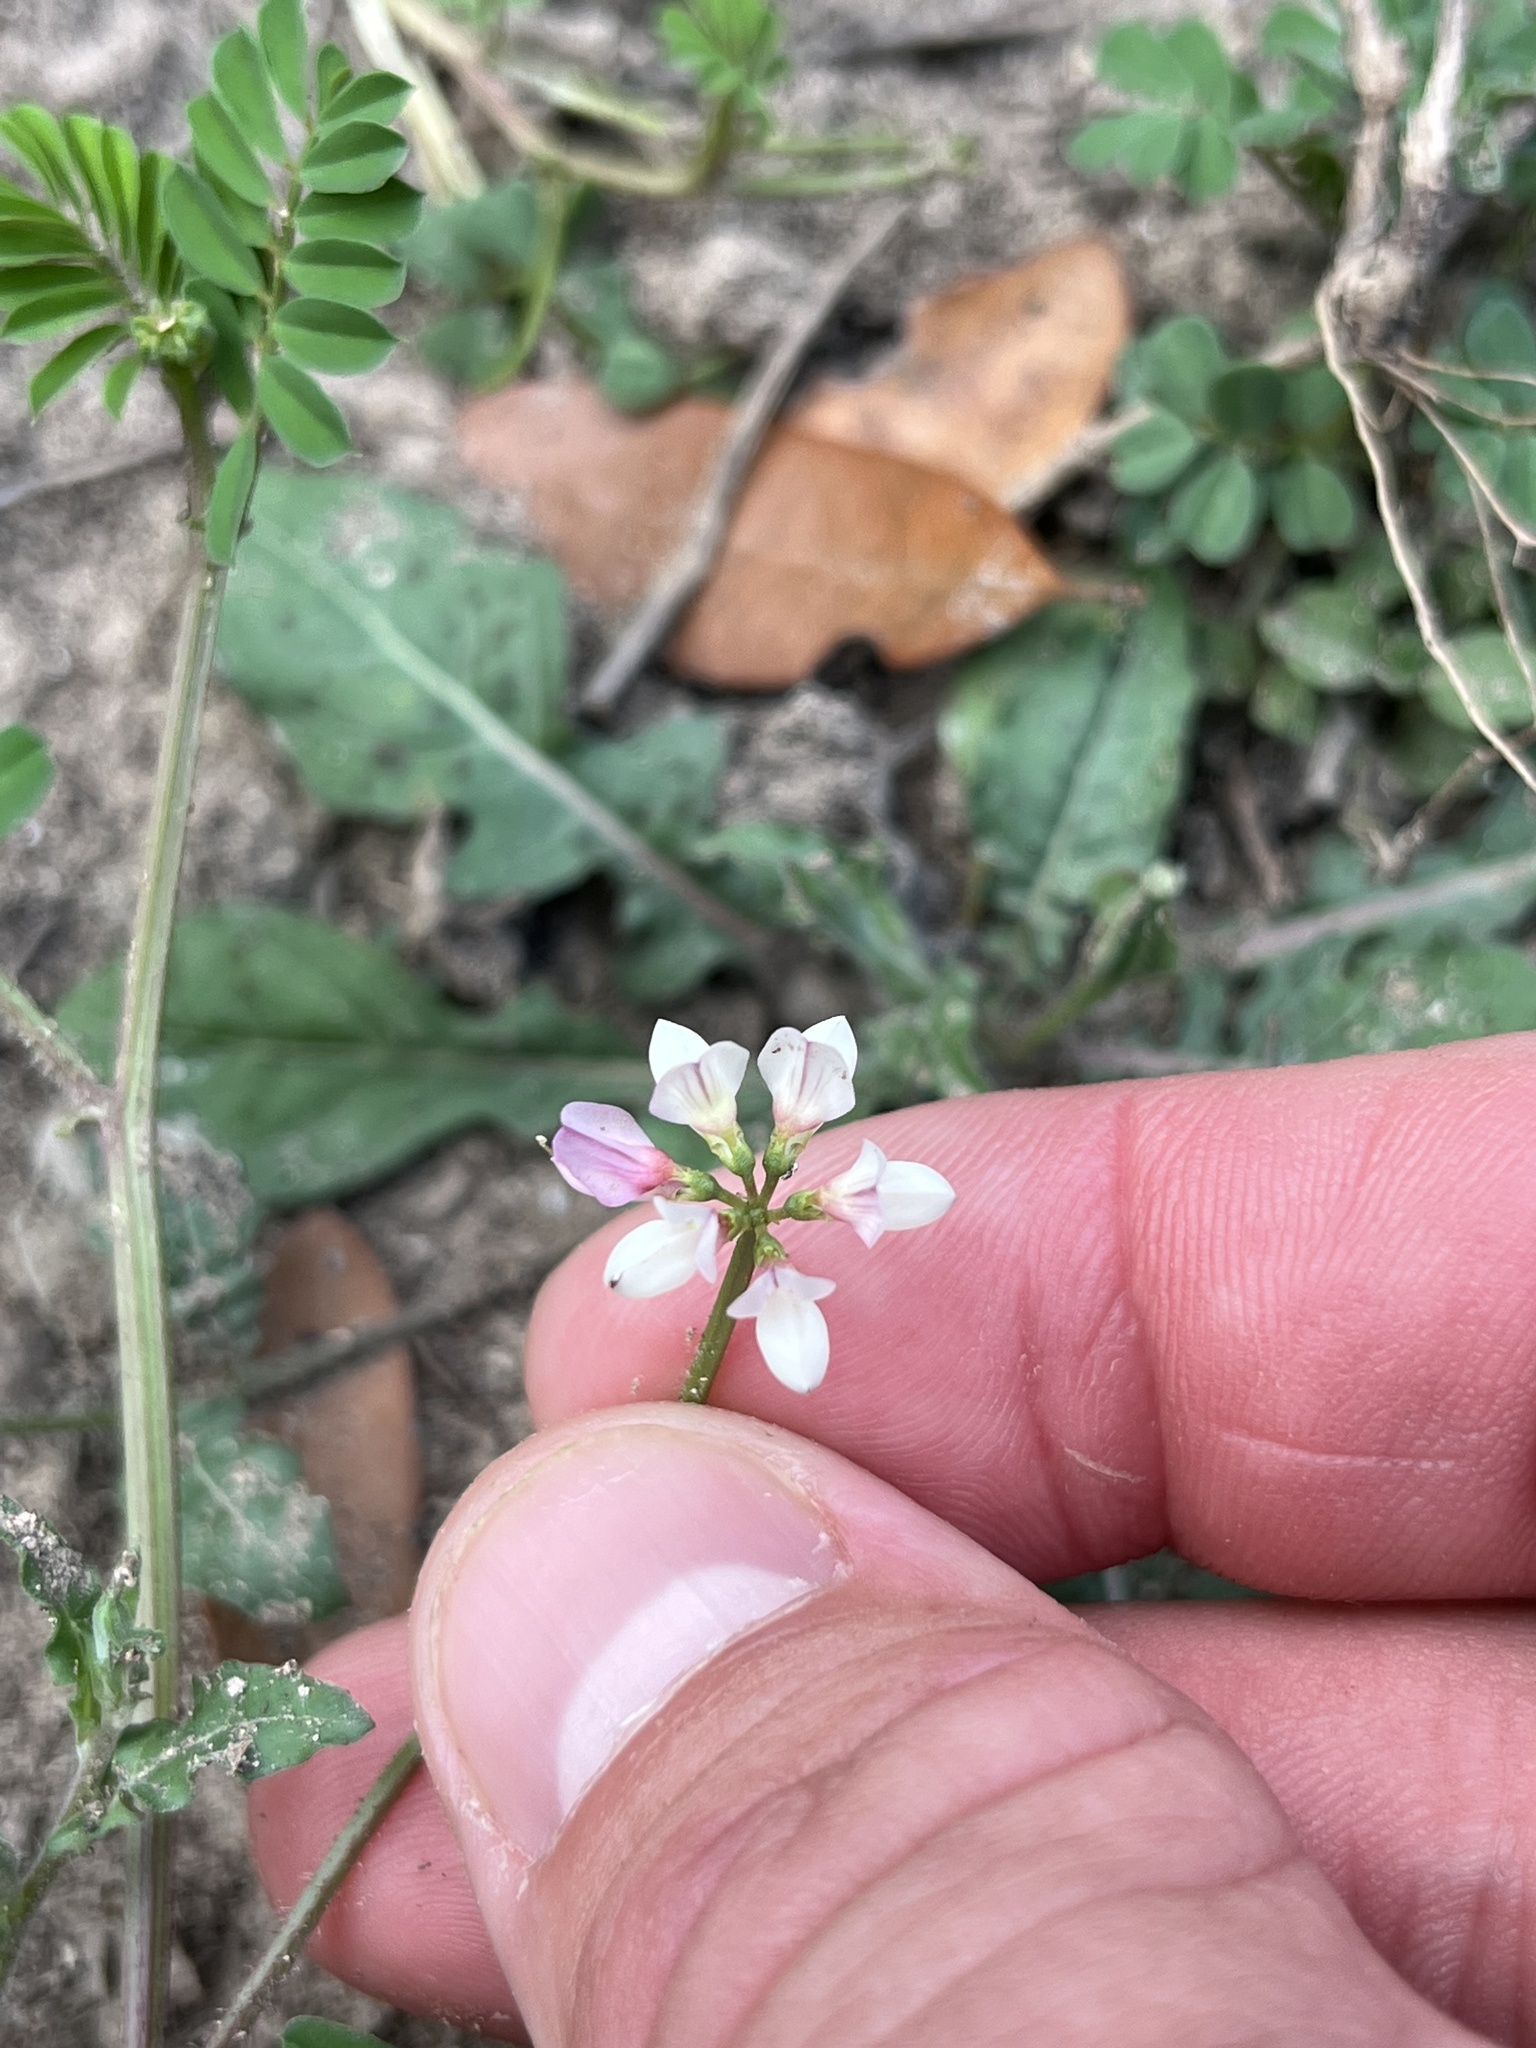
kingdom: Plantae
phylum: Tracheophyta
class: Magnoliopsida
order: Fabales
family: Fabaceae
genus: Coronilla
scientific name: Coronilla cretica
